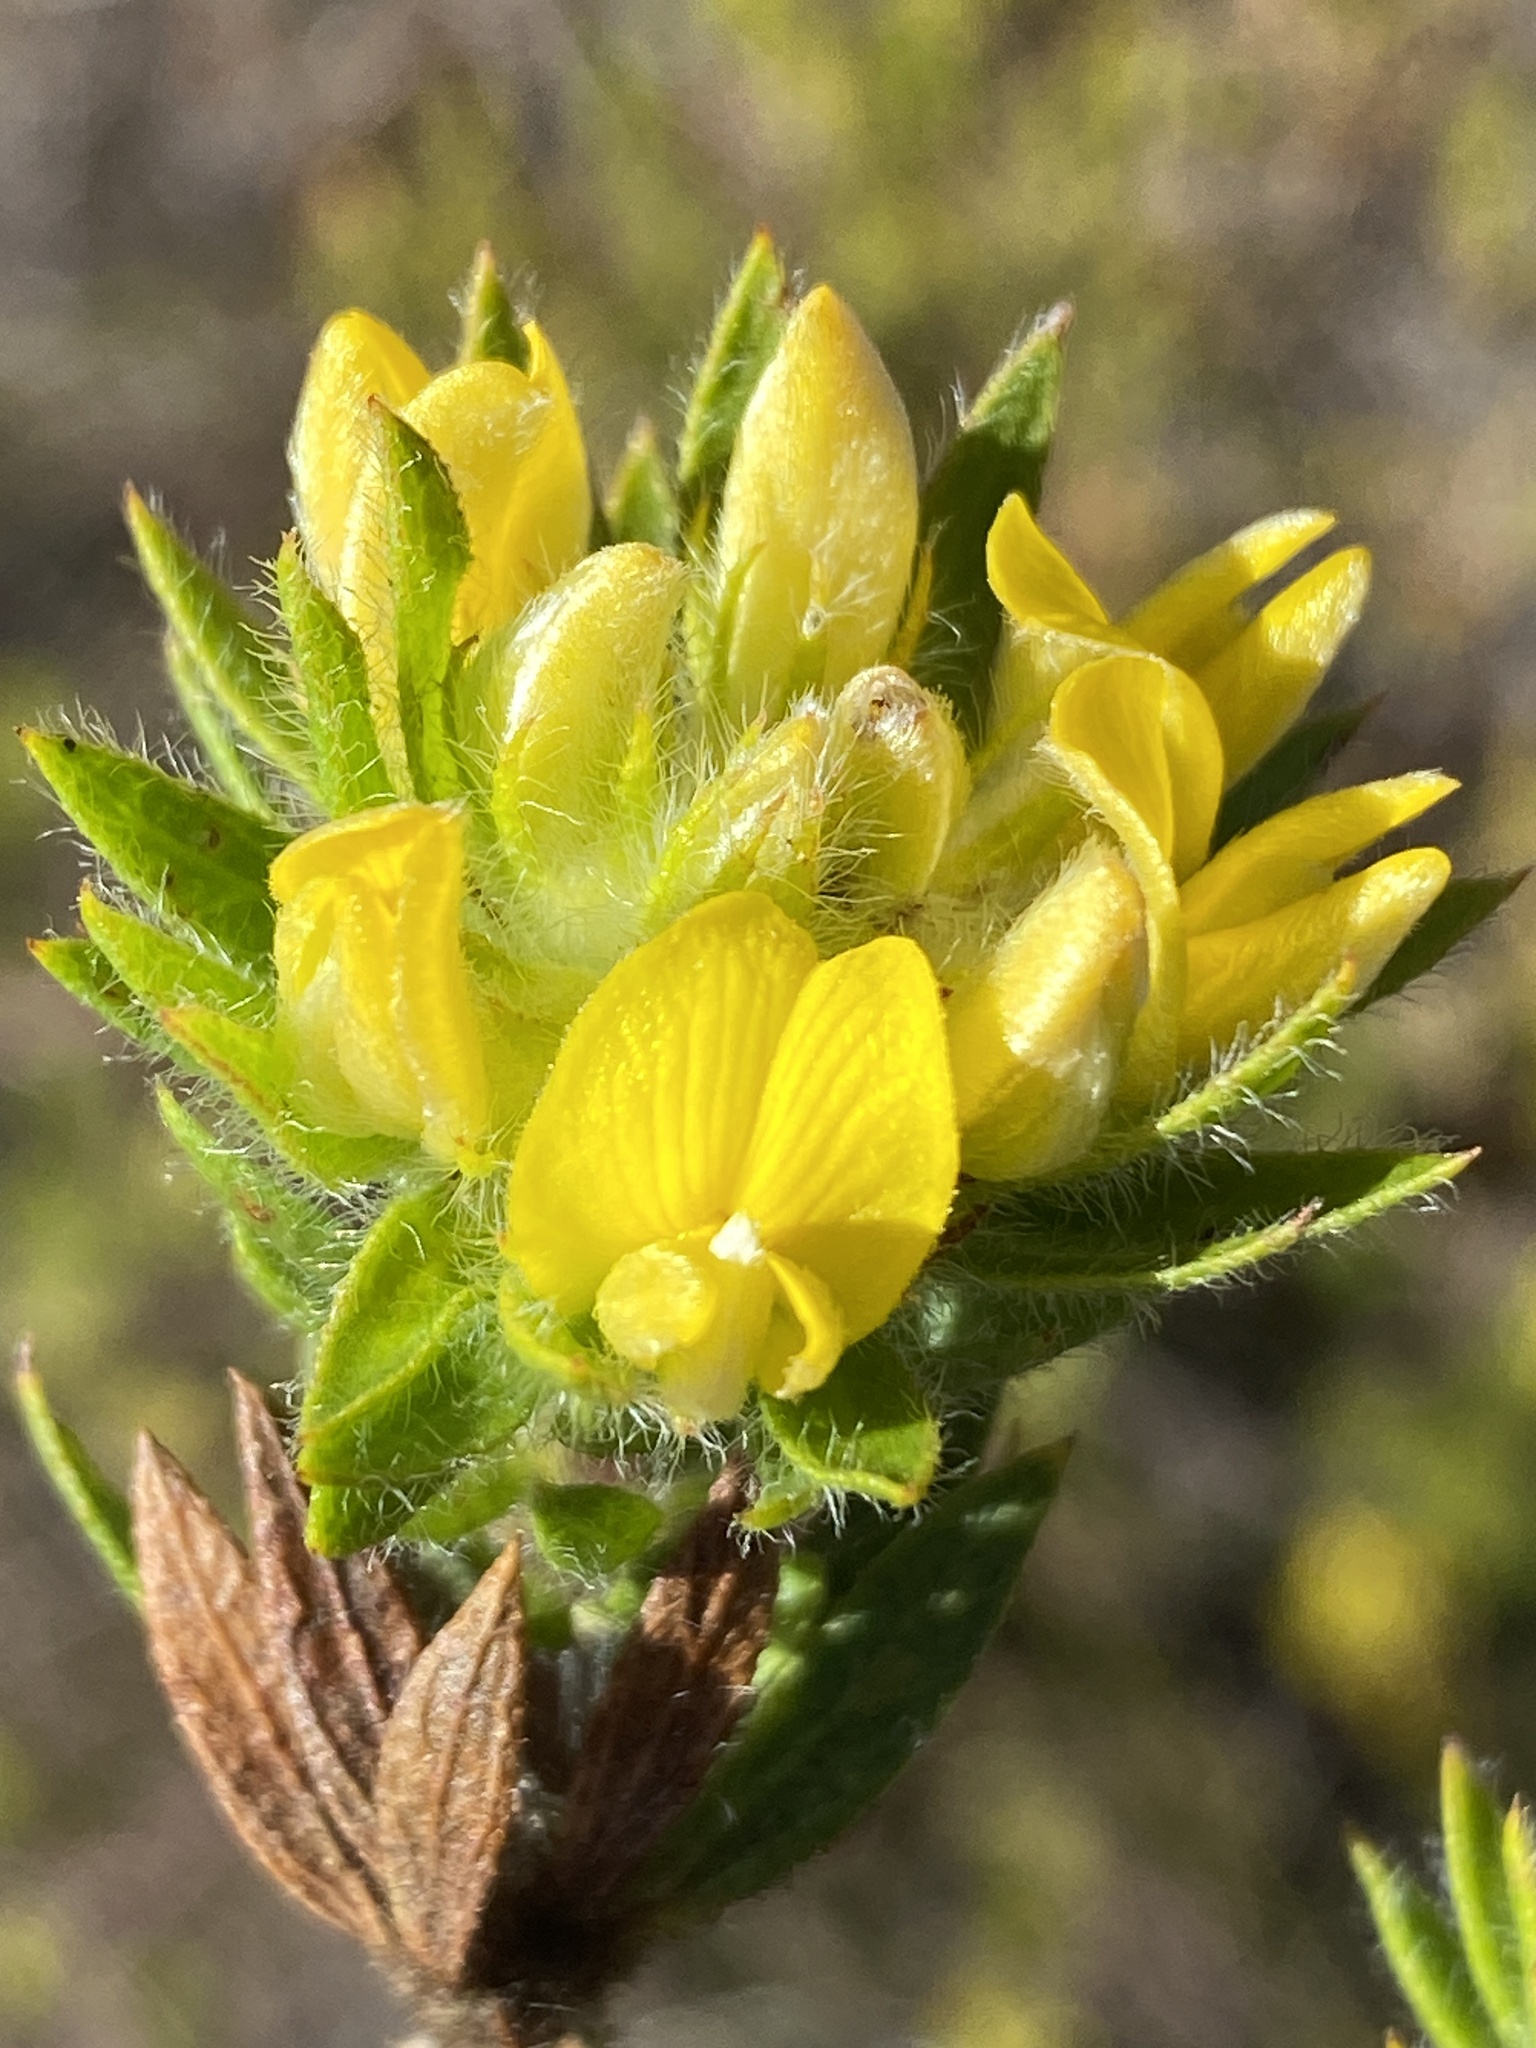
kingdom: Plantae
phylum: Tracheophyta
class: Magnoliopsida
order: Fabales
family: Fabaceae
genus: Aspalathus
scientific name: Aspalathus aspalathoides
